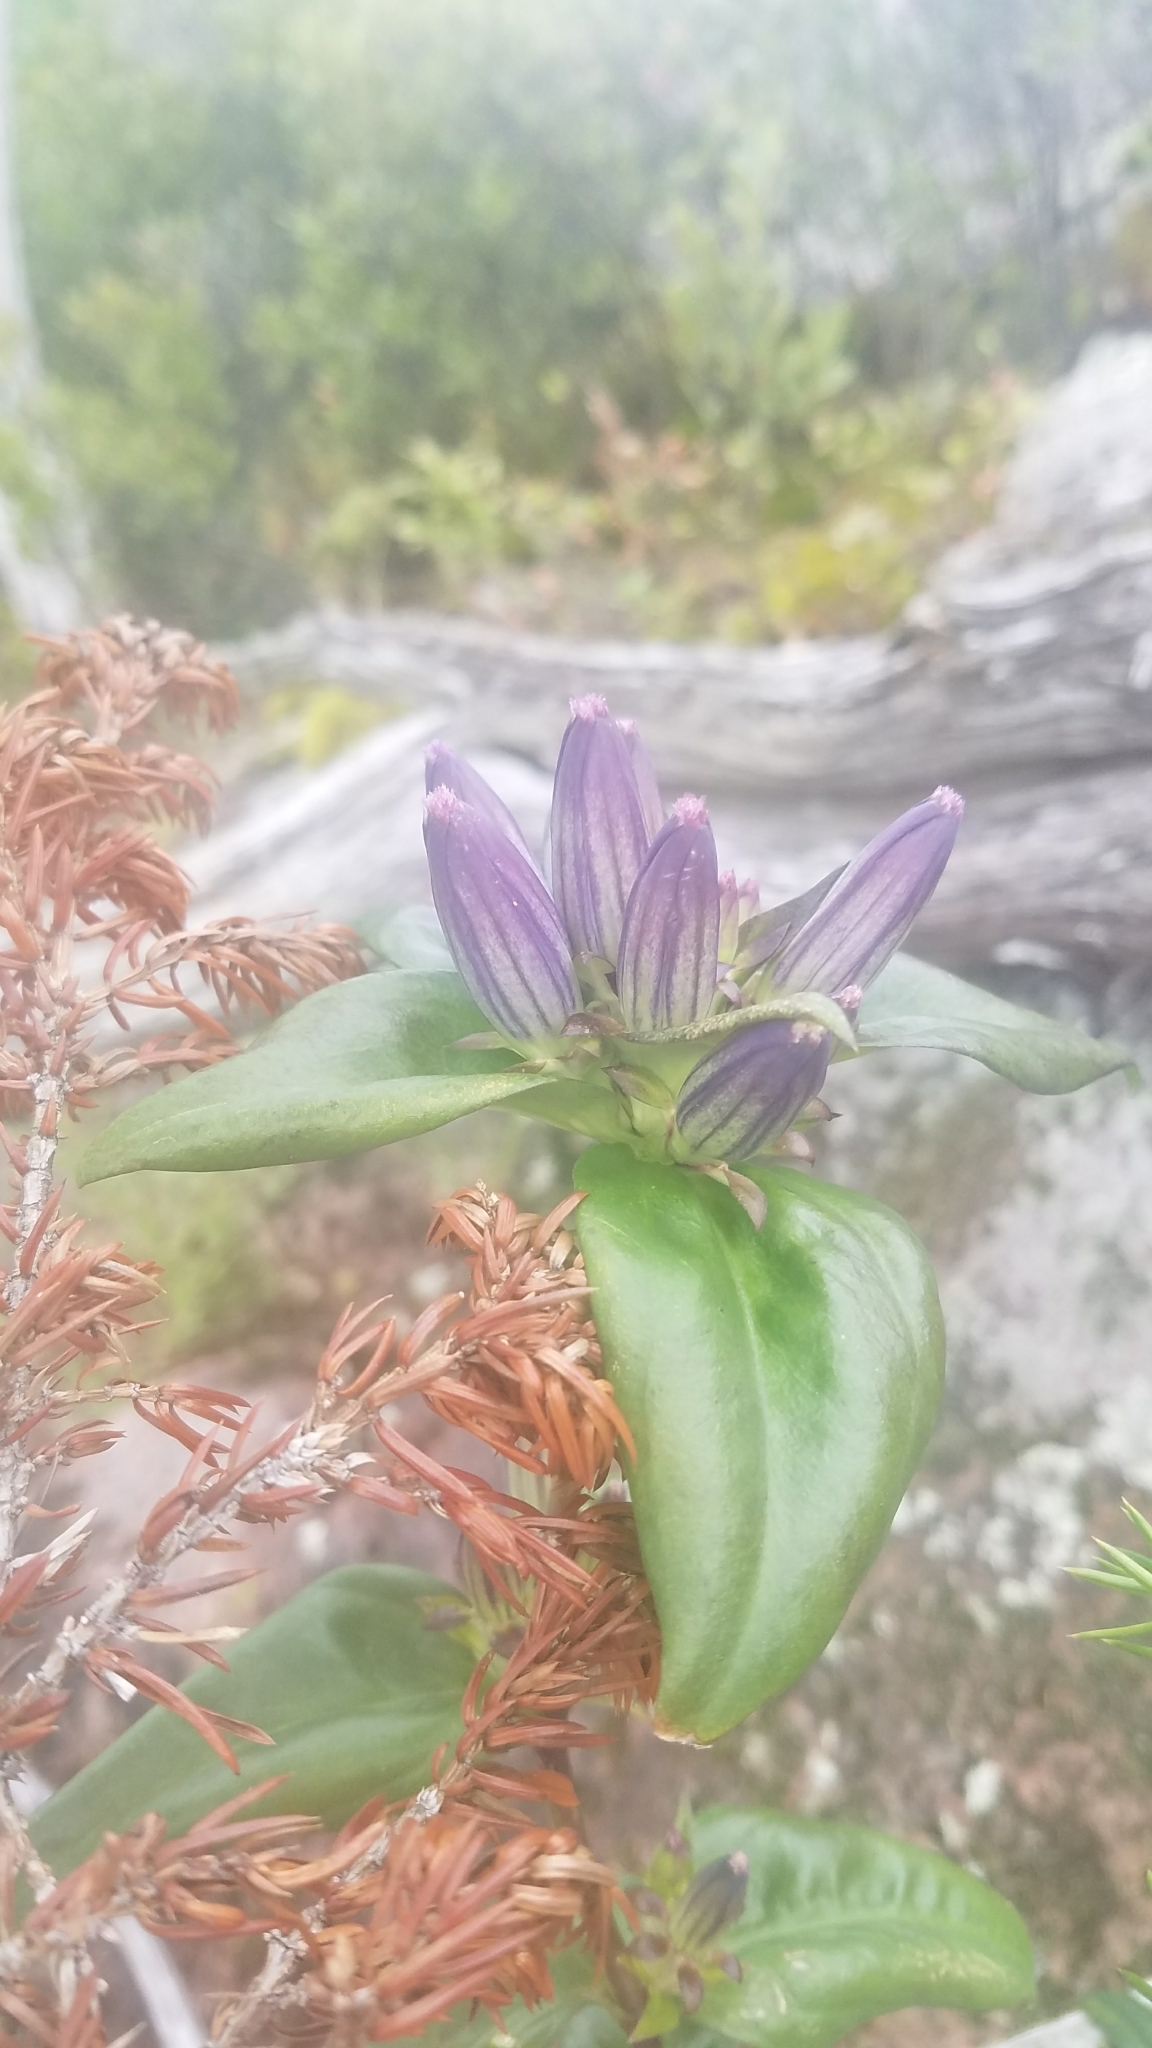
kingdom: Plantae
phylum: Tracheophyta
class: Magnoliopsida
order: Gentianales
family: Gentianaceae
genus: Gentiana
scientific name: Gentiana andrewsii
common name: Bottle gentian
